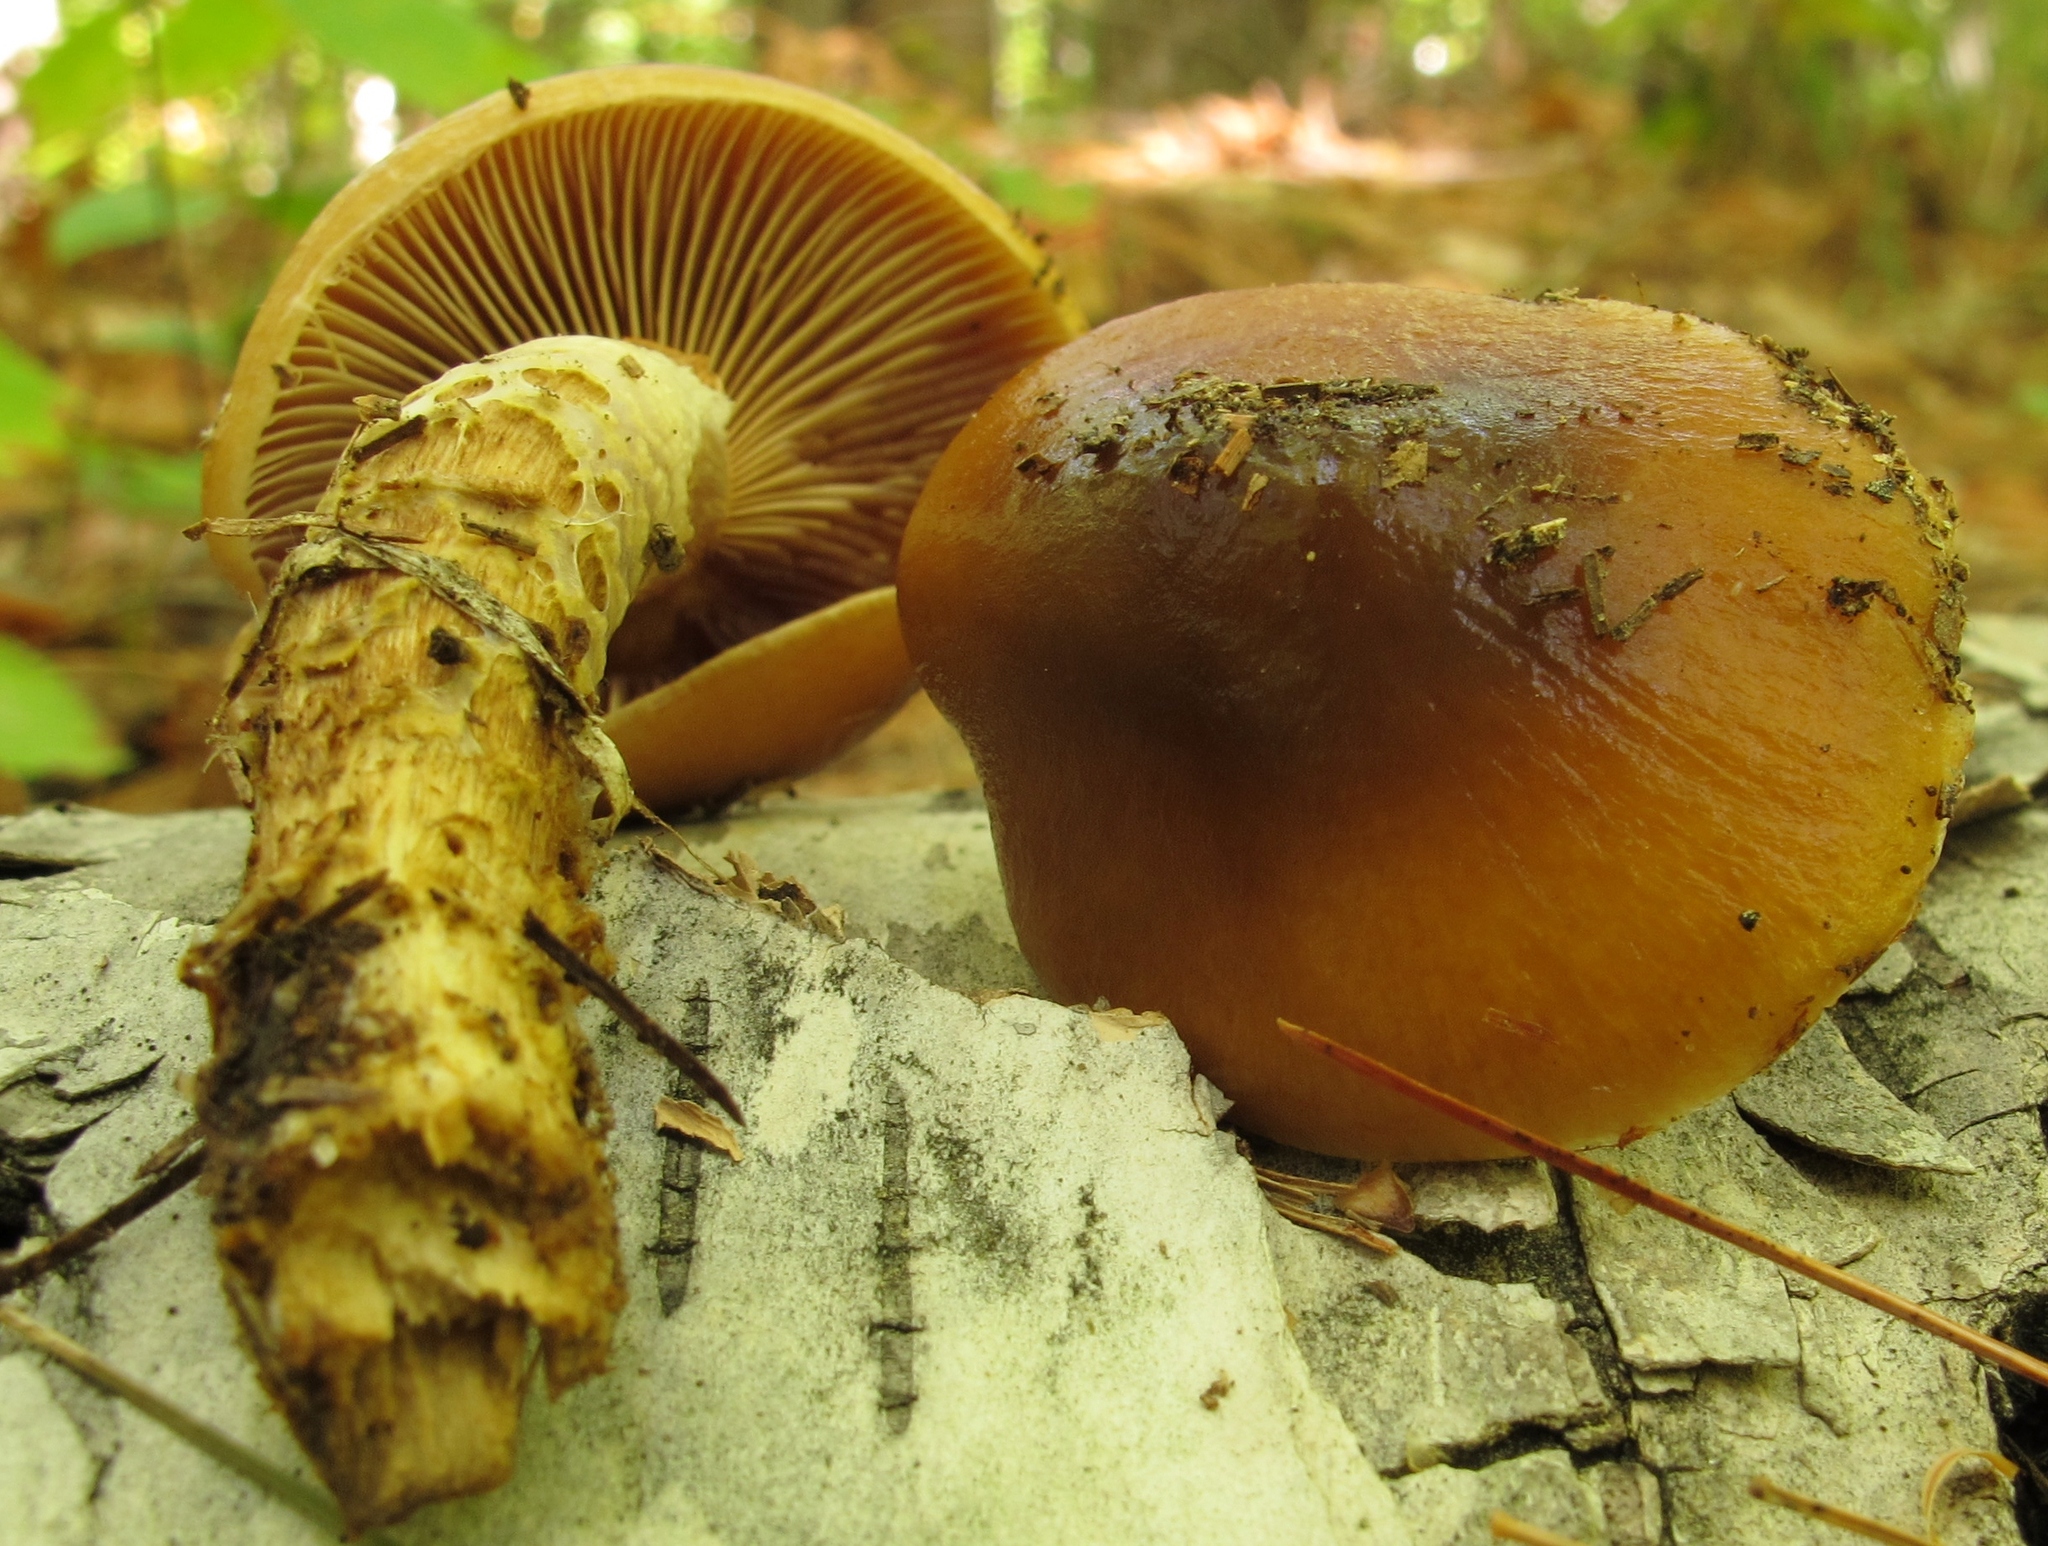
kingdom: Fungi
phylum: Basidiomycota
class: Agaricomycetes
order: Agaricales
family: Cortinariaceae
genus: Cortinarius
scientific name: Cortinarius trivialis
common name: Girdled webcap
